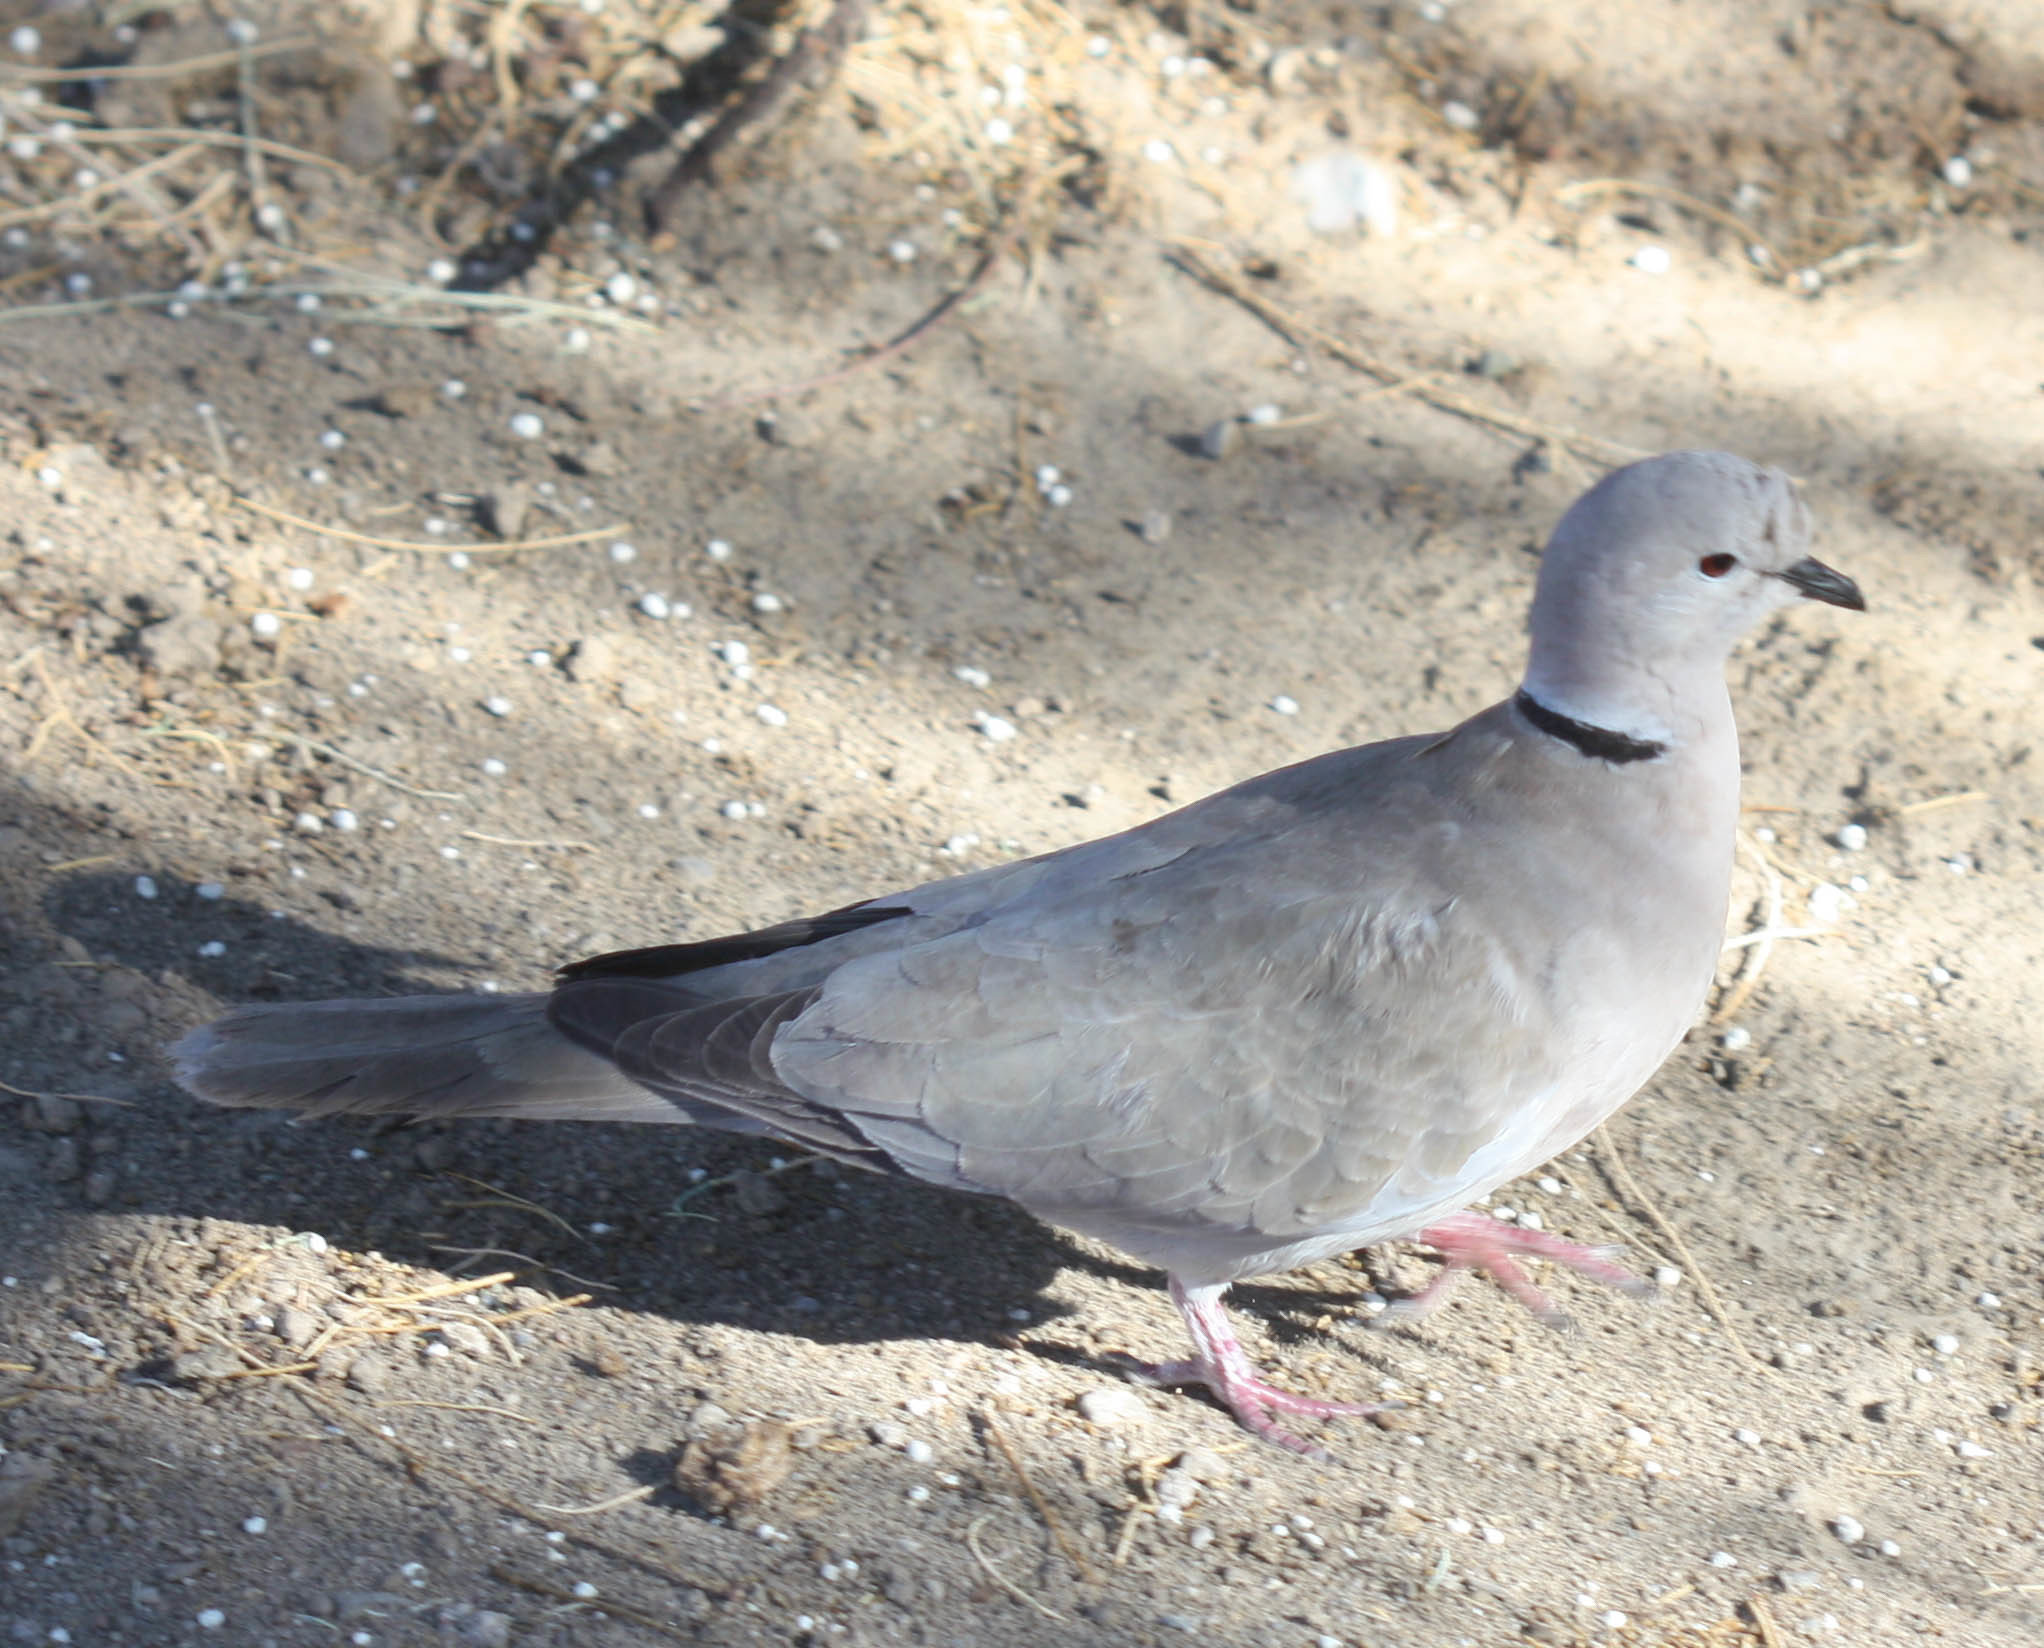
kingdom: Animalia
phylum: Chordata
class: Aves
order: Columbiformes
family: Columbidae
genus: Streptopelia
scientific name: Streptopelia decaocto
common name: Eurasian collared dove
